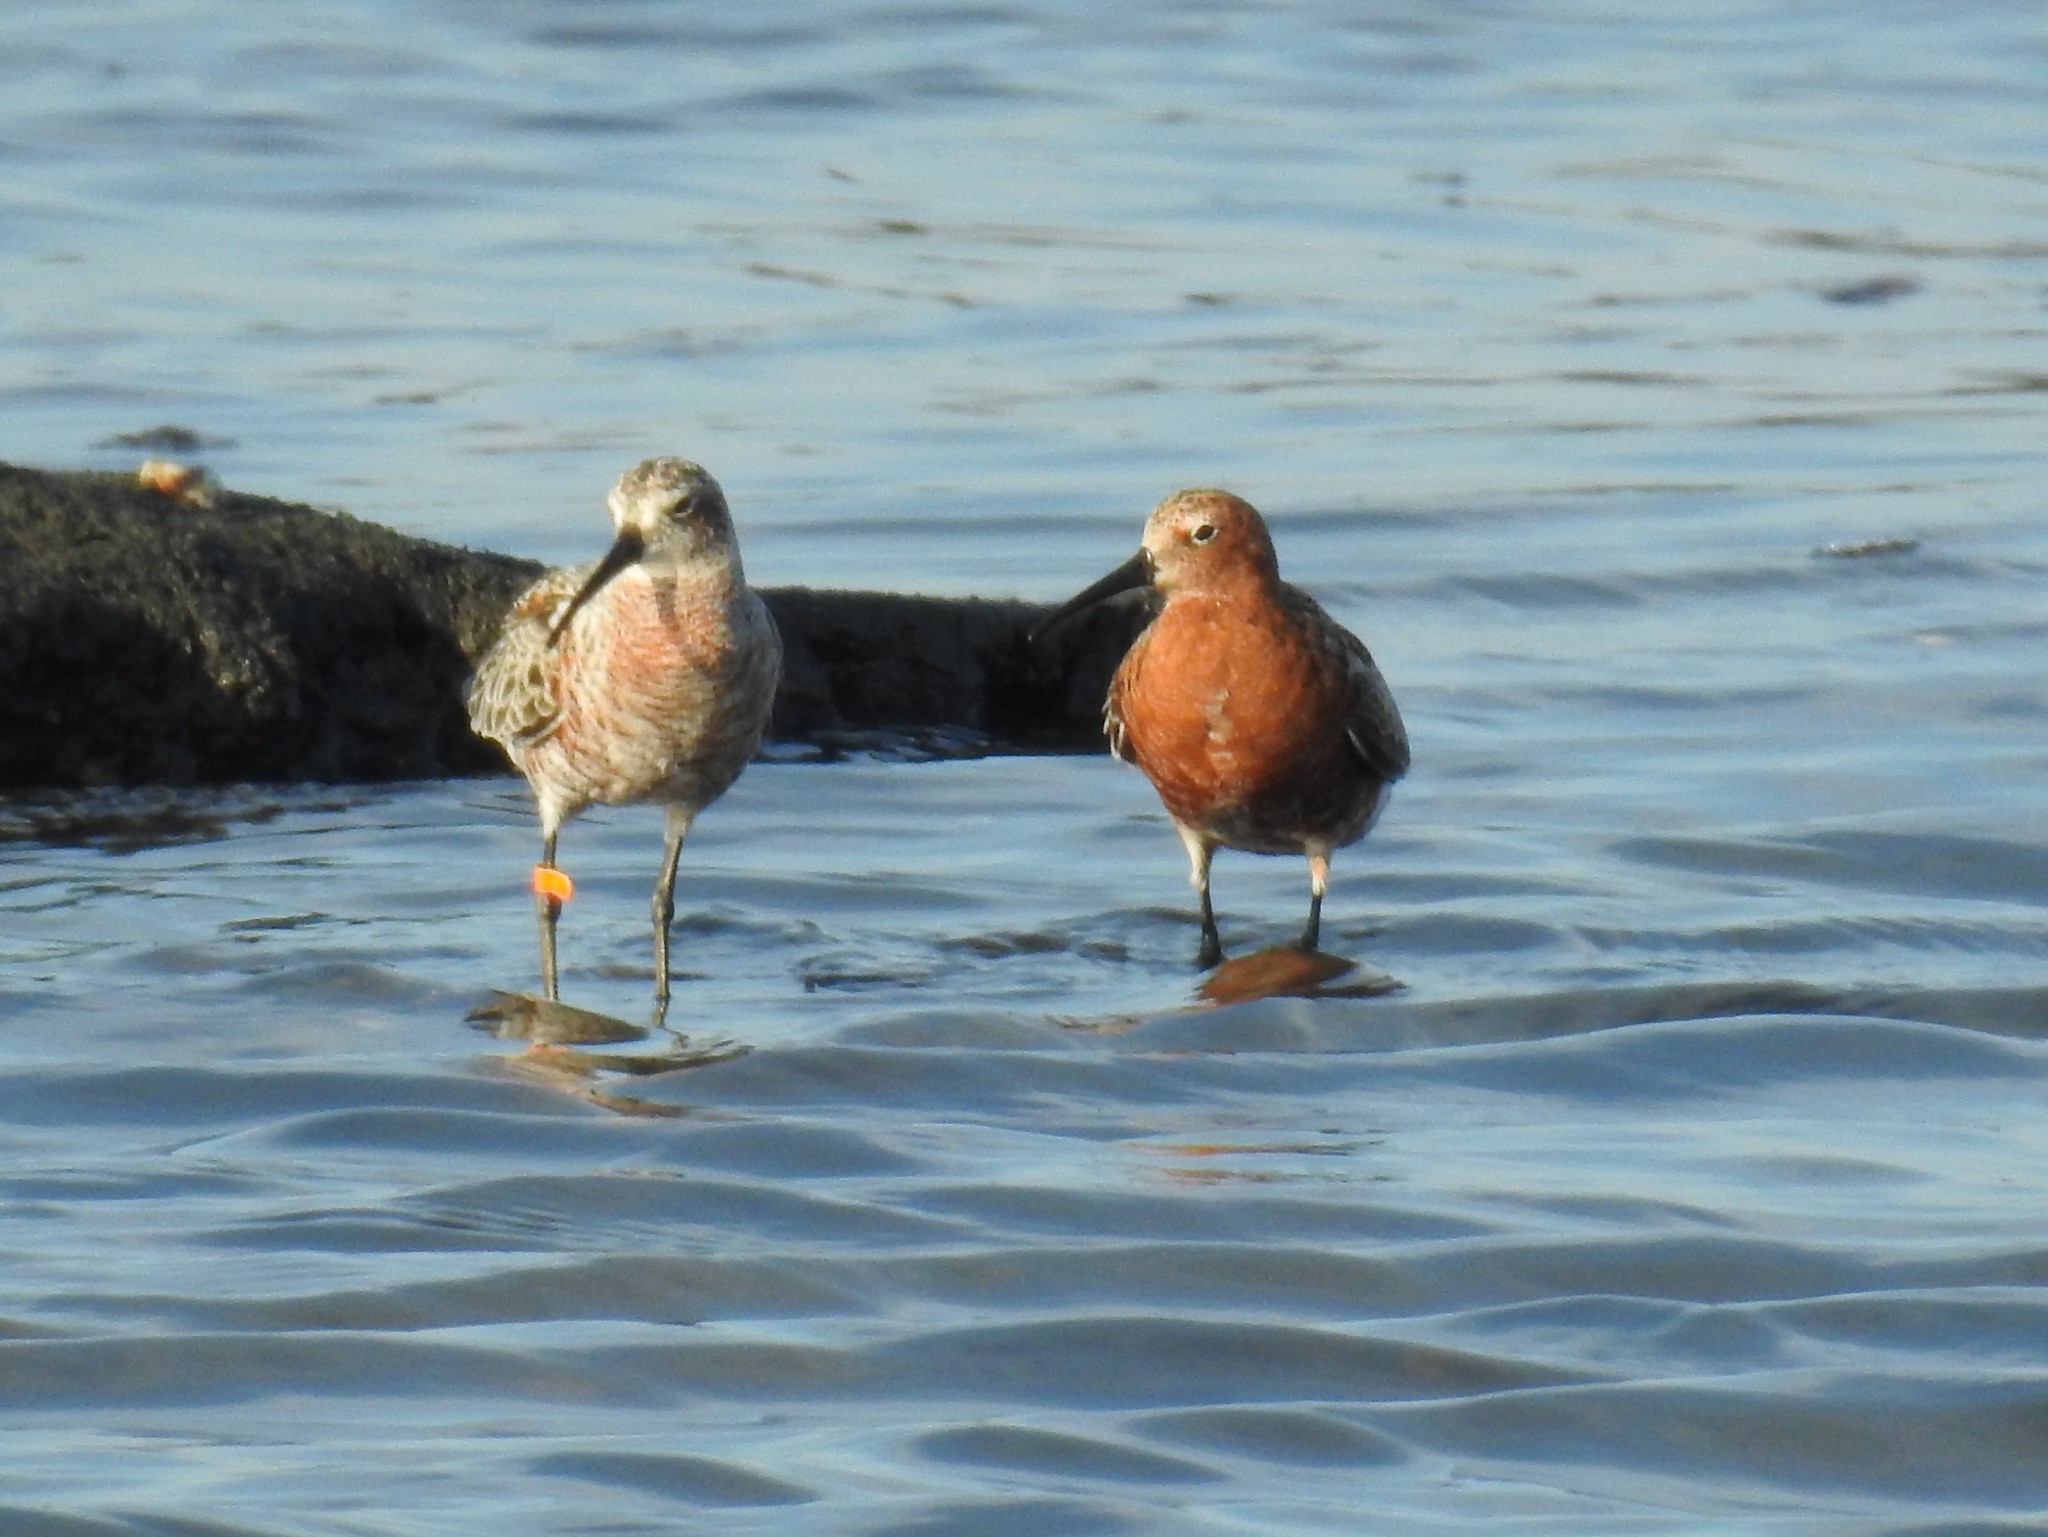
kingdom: Animalia
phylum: Chordata
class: Aves
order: Charadriiformes
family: Scolopacidae
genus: Calidris
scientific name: Calidris ferruginea
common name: Curlew sandpiper
